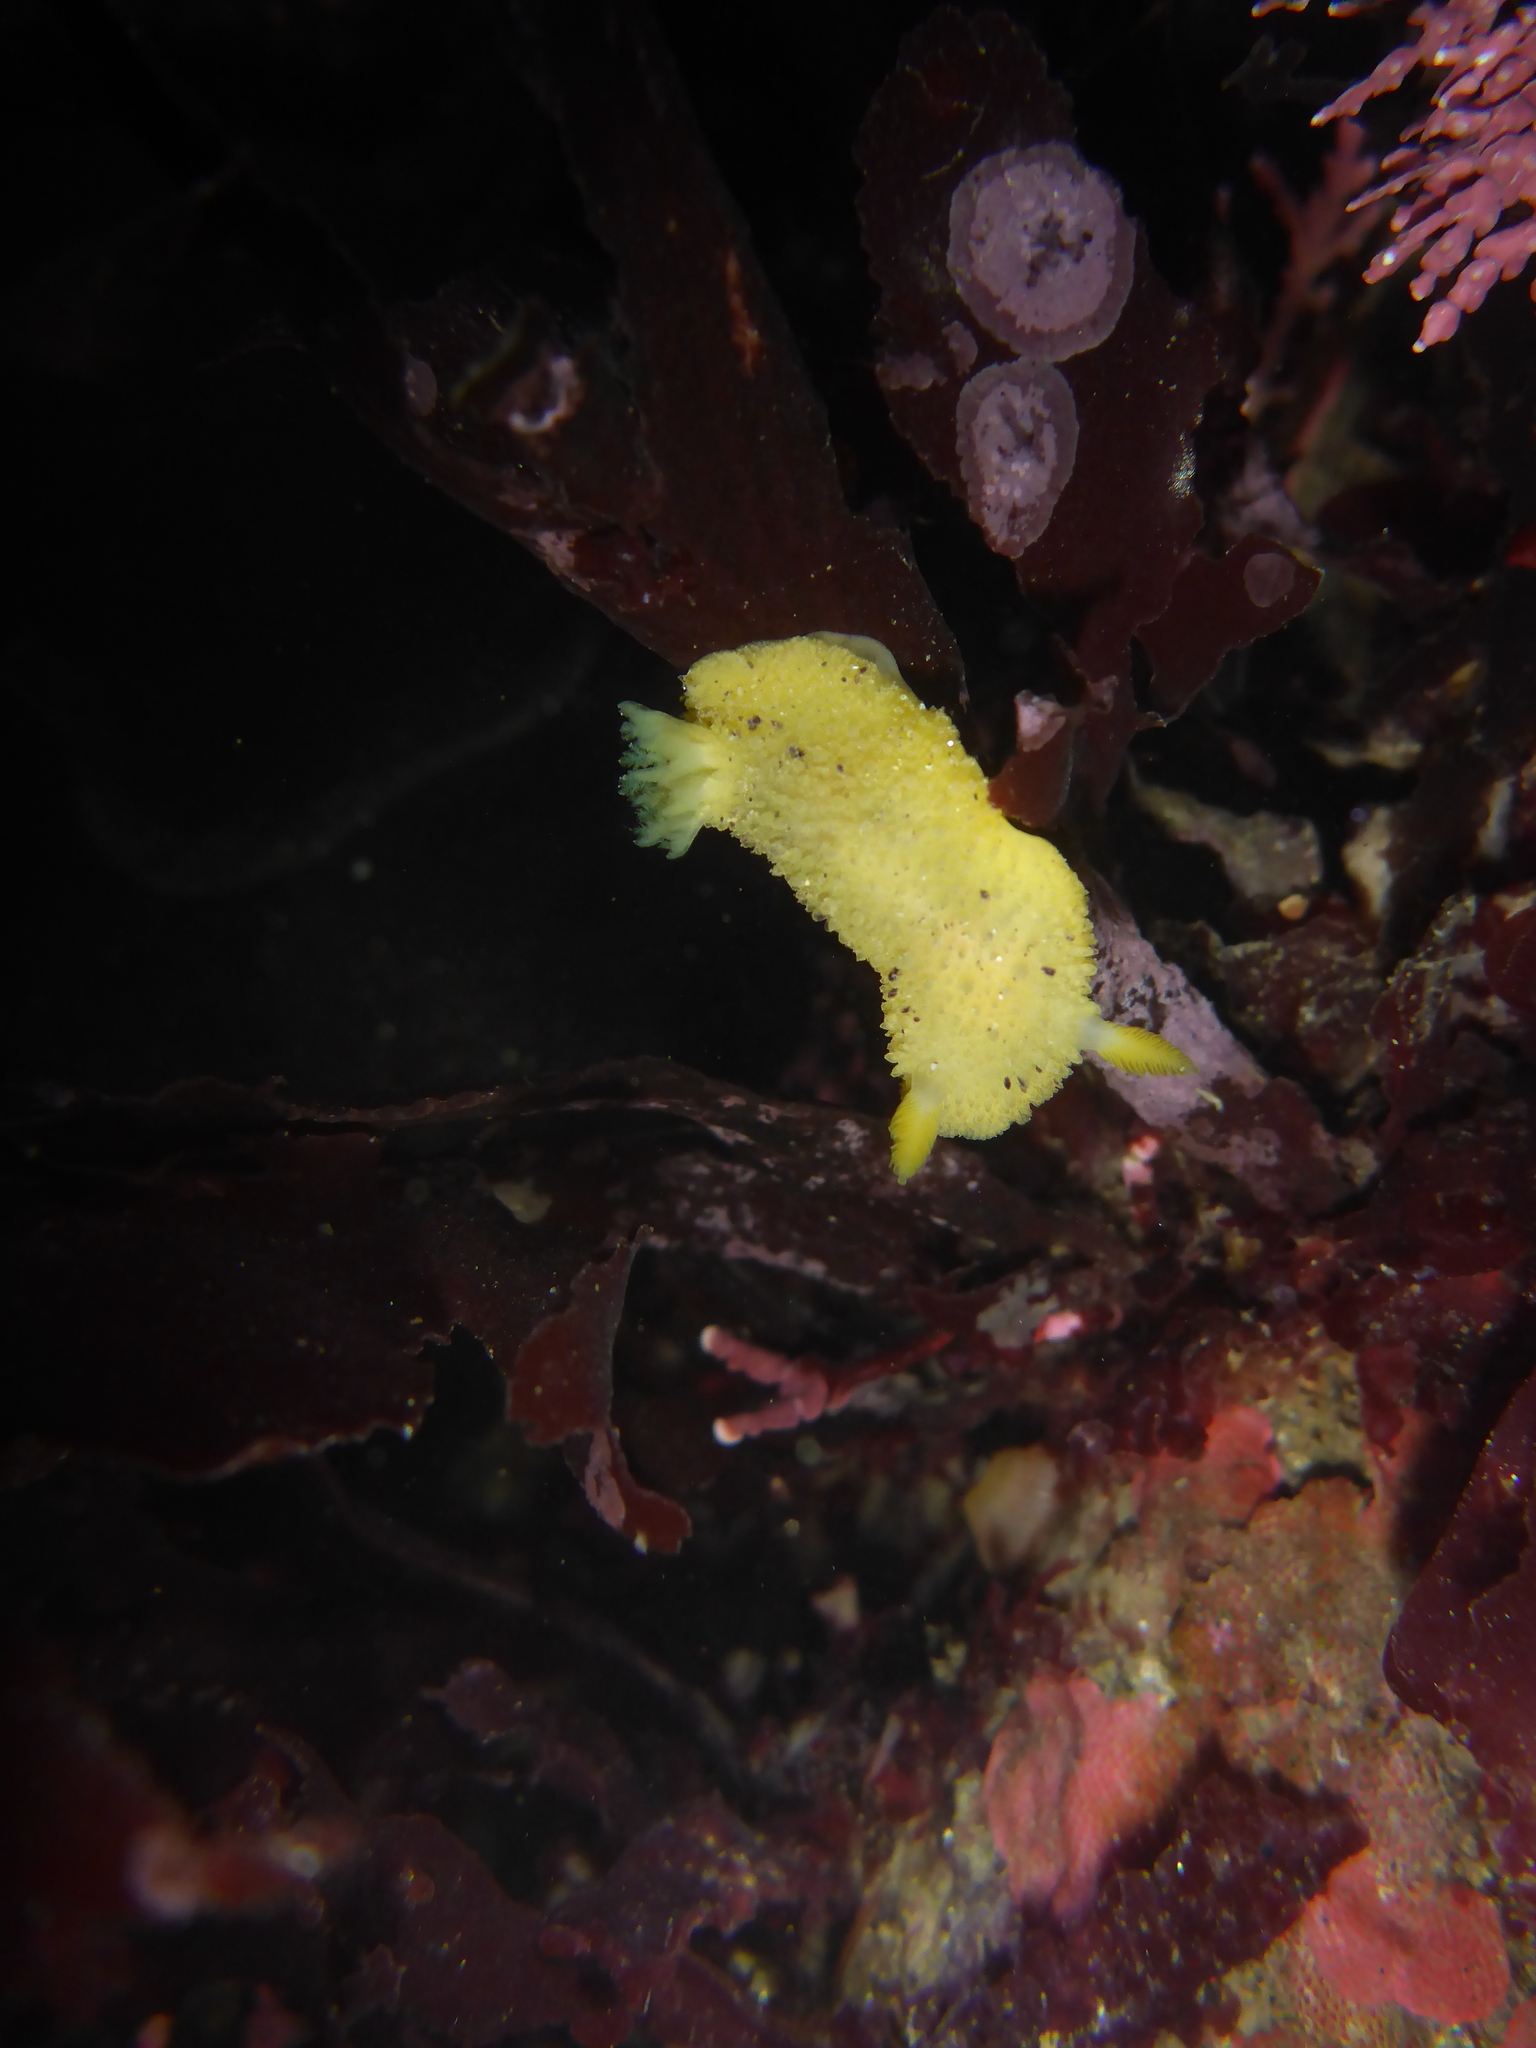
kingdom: Animalia
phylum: Mollusca
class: Gastropoda
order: Nudibranchia
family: Dorididae
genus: Doris
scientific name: Doris montereyensis
